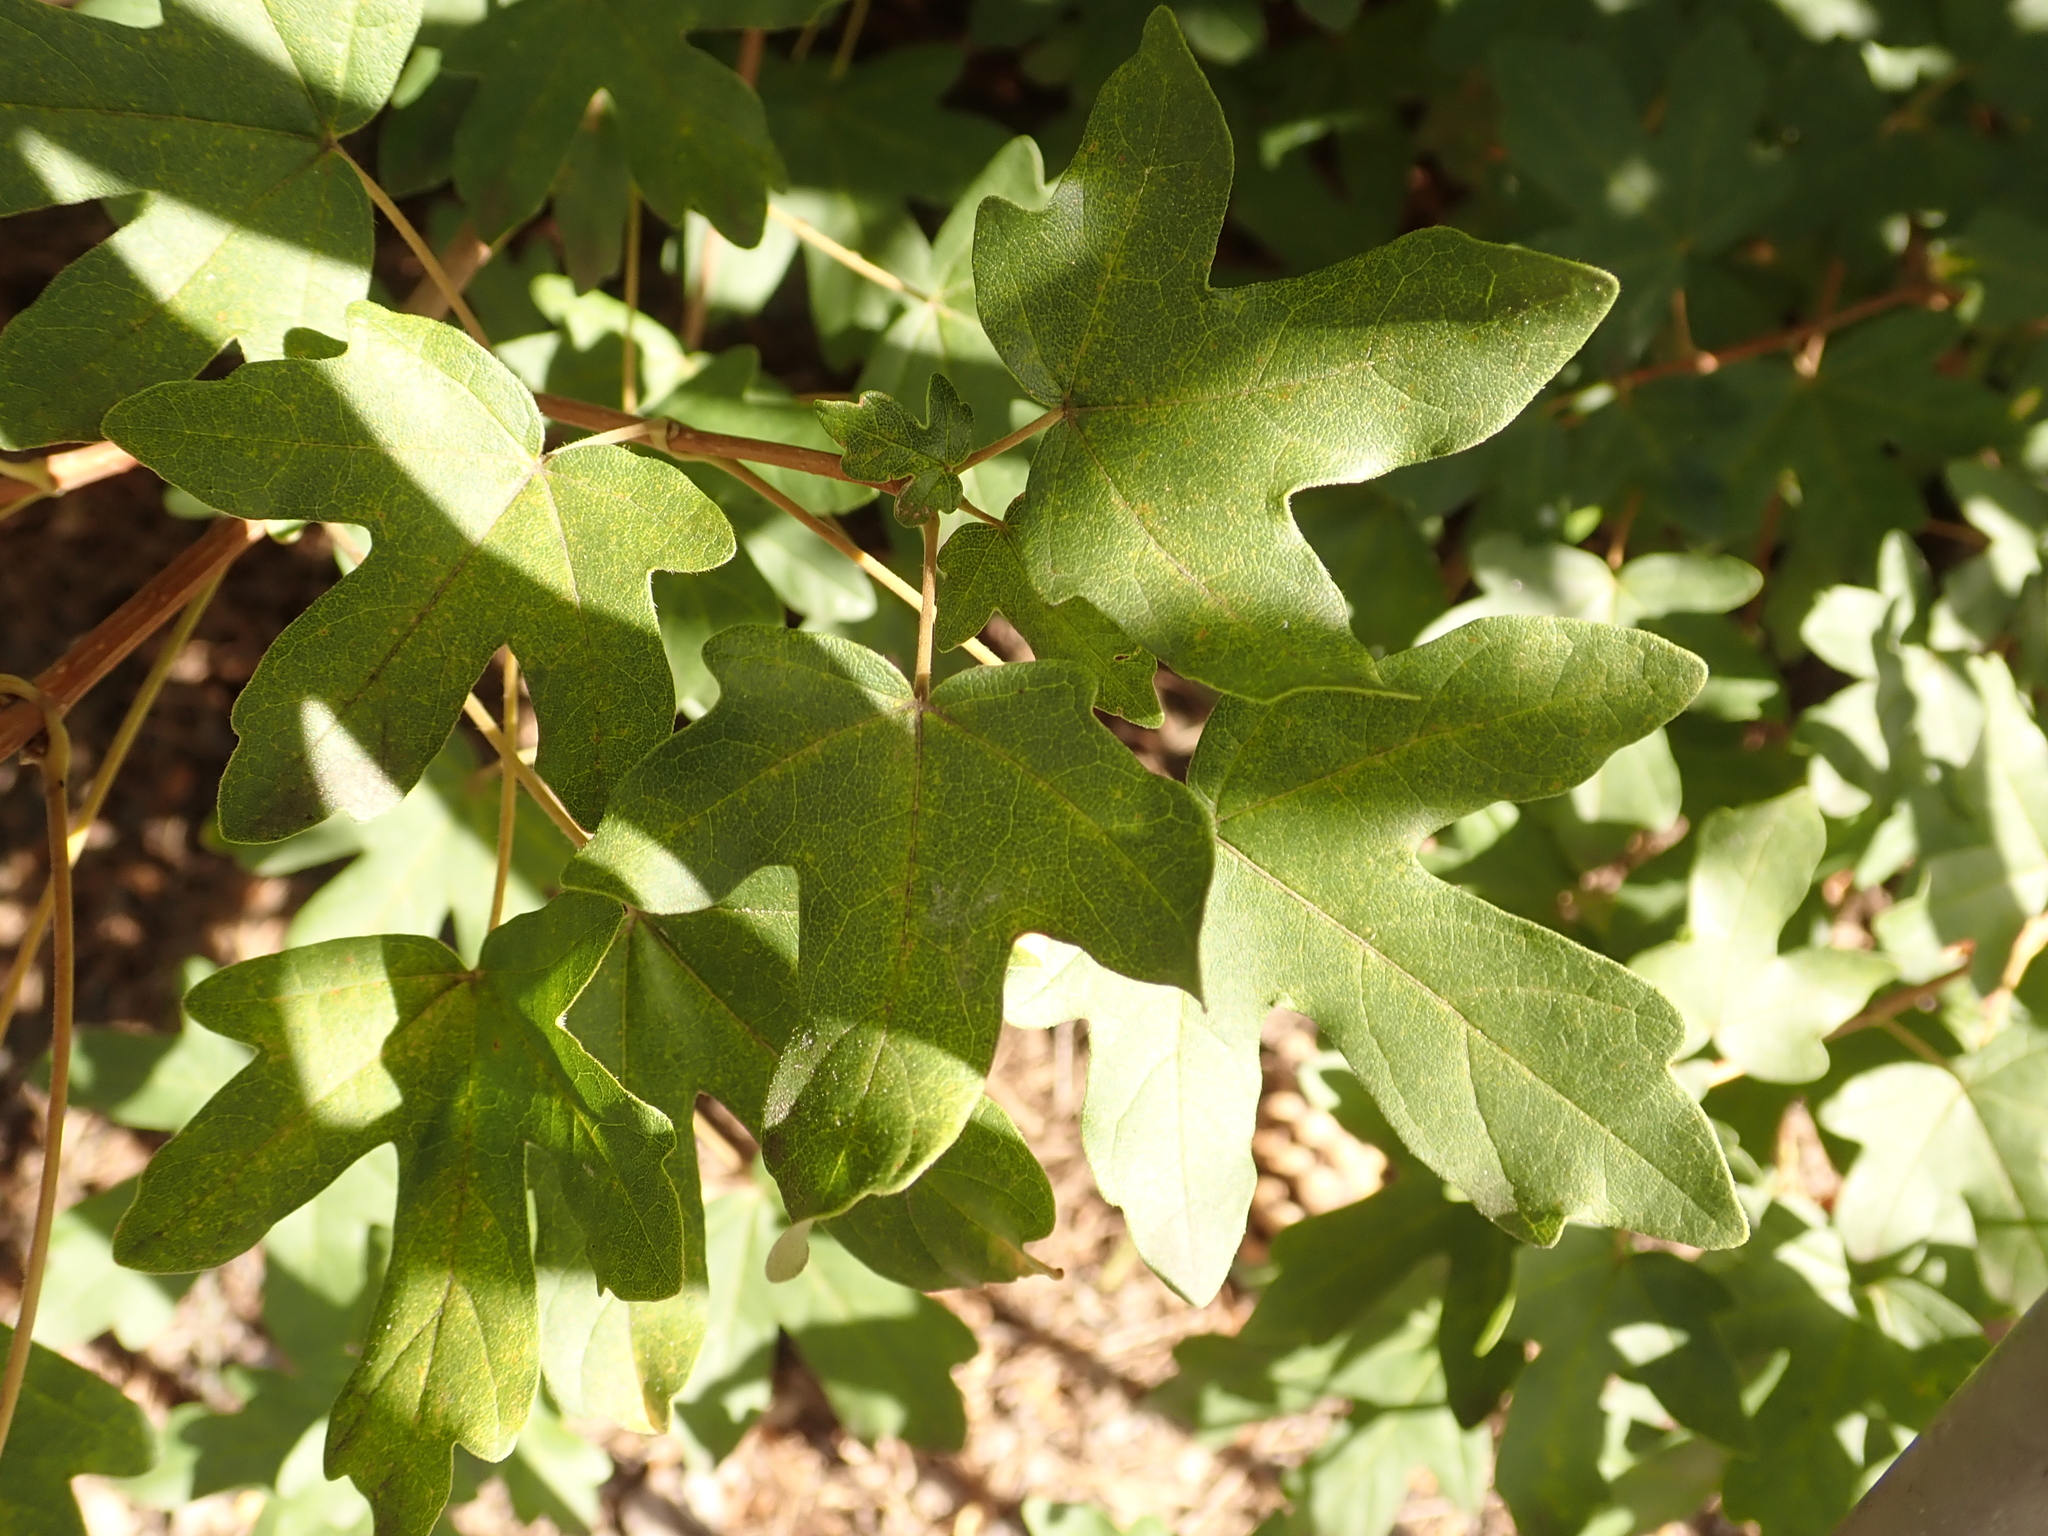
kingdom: Plantae
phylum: Tracheophyta
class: Magnoliopsida
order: Sapindales
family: Sapindaceae
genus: Acer
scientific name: Acer campestre
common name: Field maple
